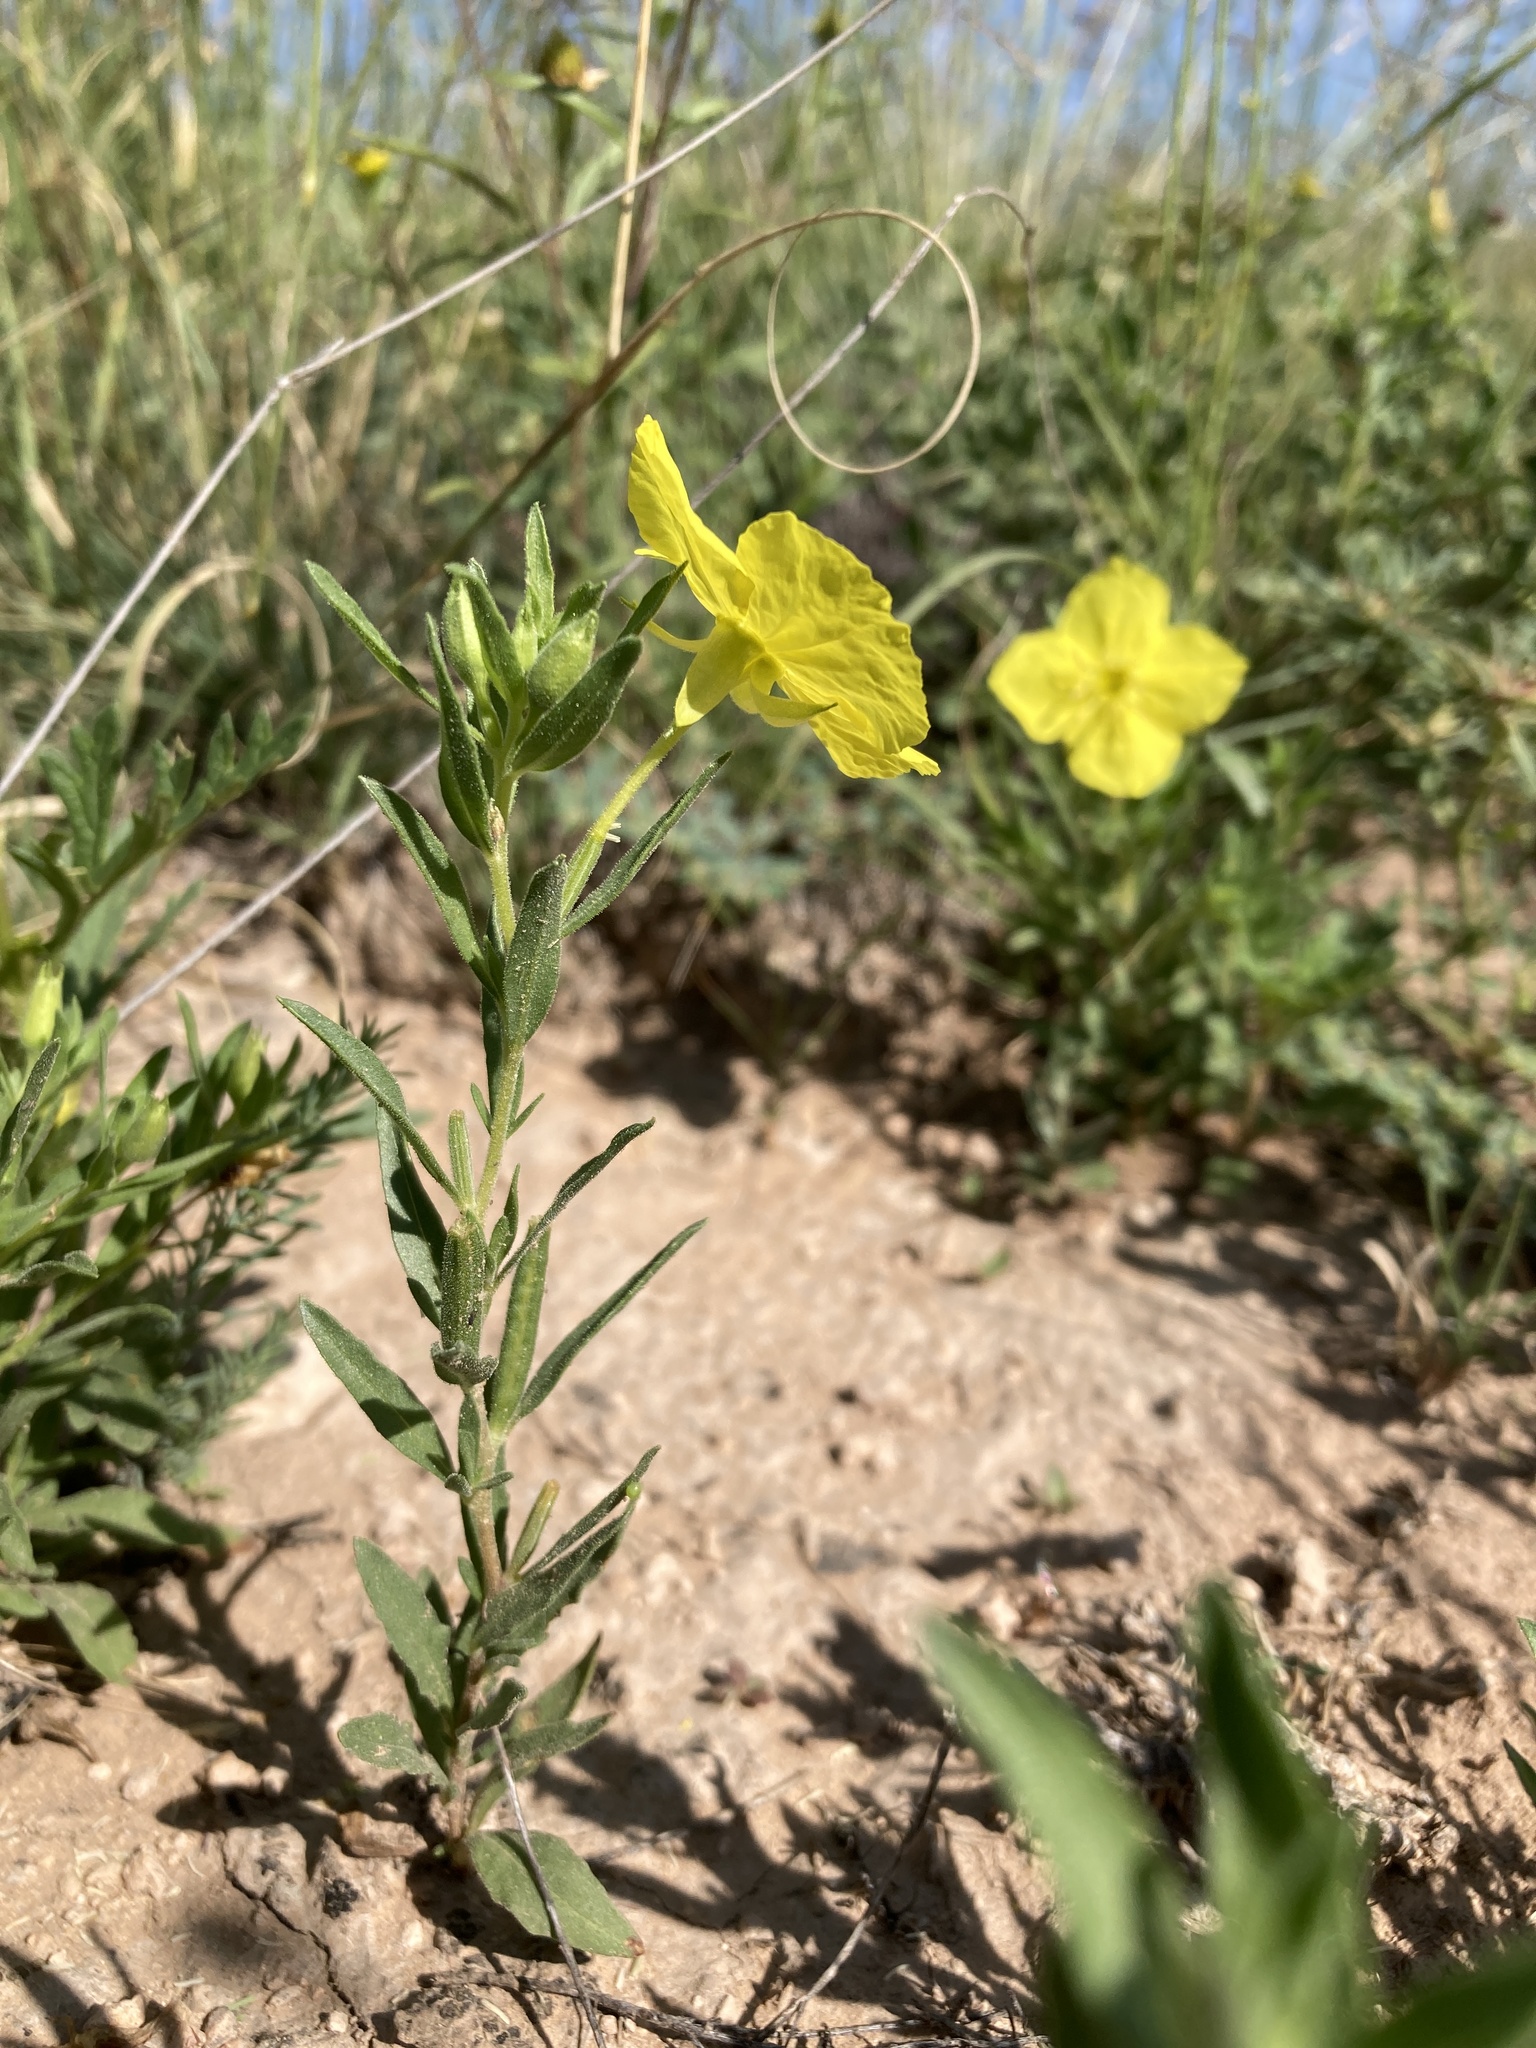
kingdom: Plantae
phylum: Tracheophyta
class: Magnoliopsida
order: Myrtales
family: Onagraceae
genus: Oenothera
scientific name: Oenothera tubicula
